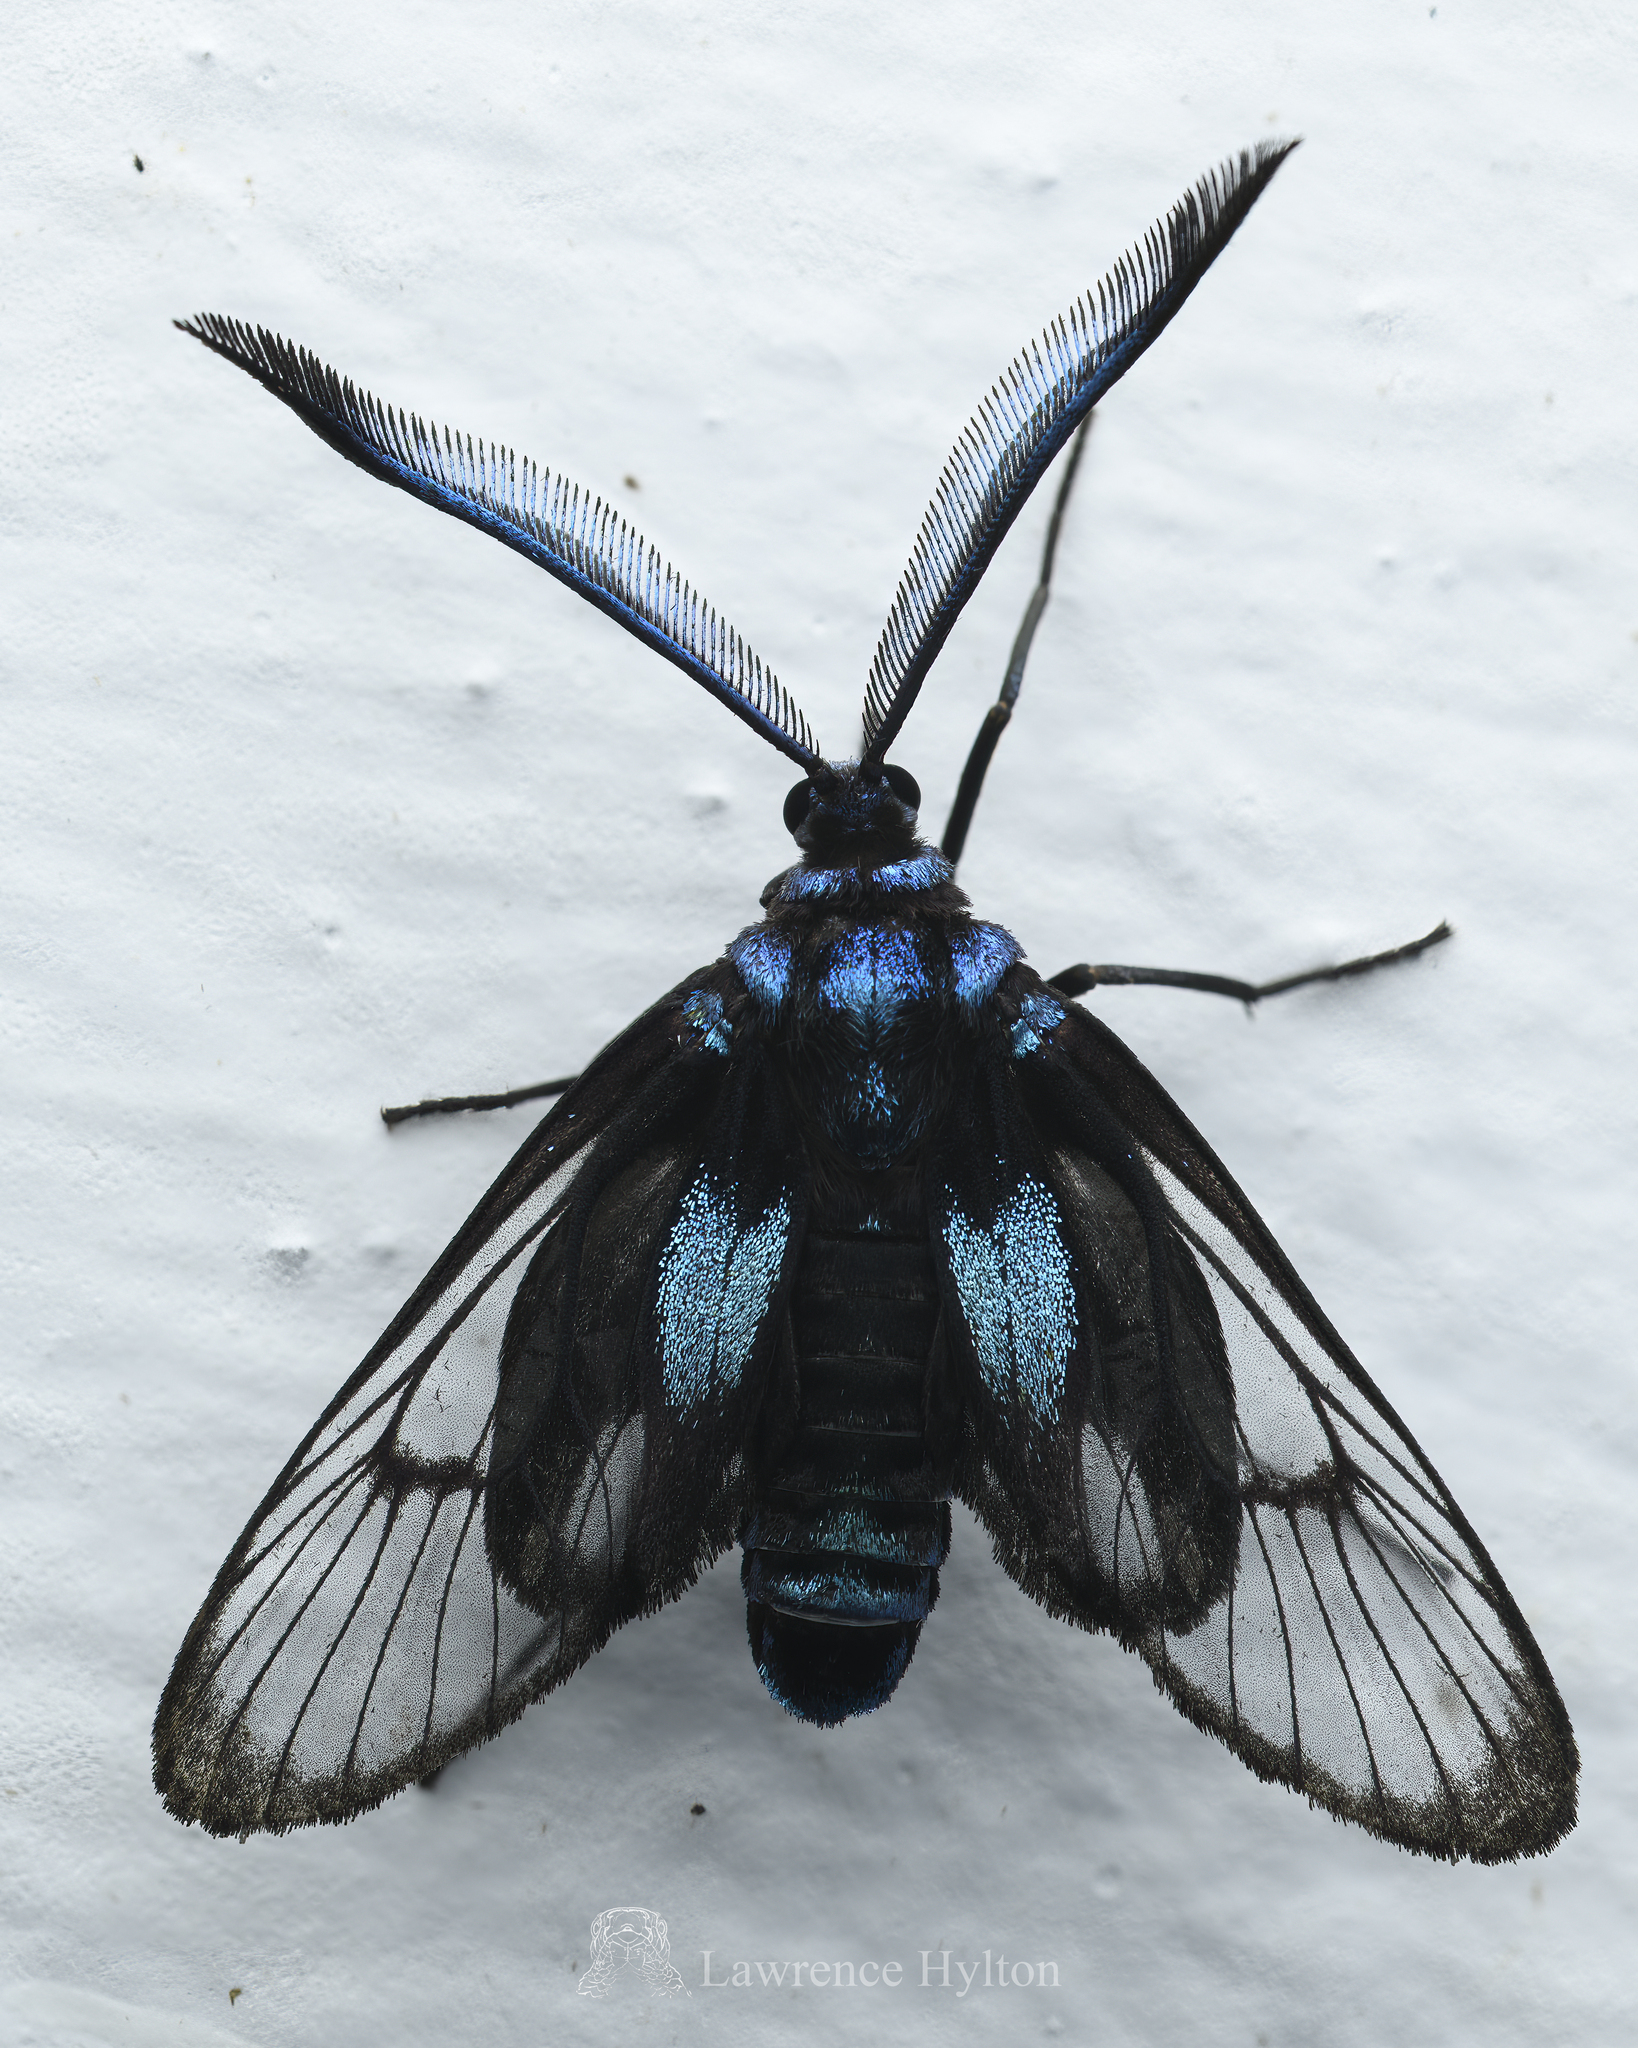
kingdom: Animalia
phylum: Arthropoda
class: Insecta
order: Lepidoptera
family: Zygaenidae
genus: Illiberis
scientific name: Illiberis
